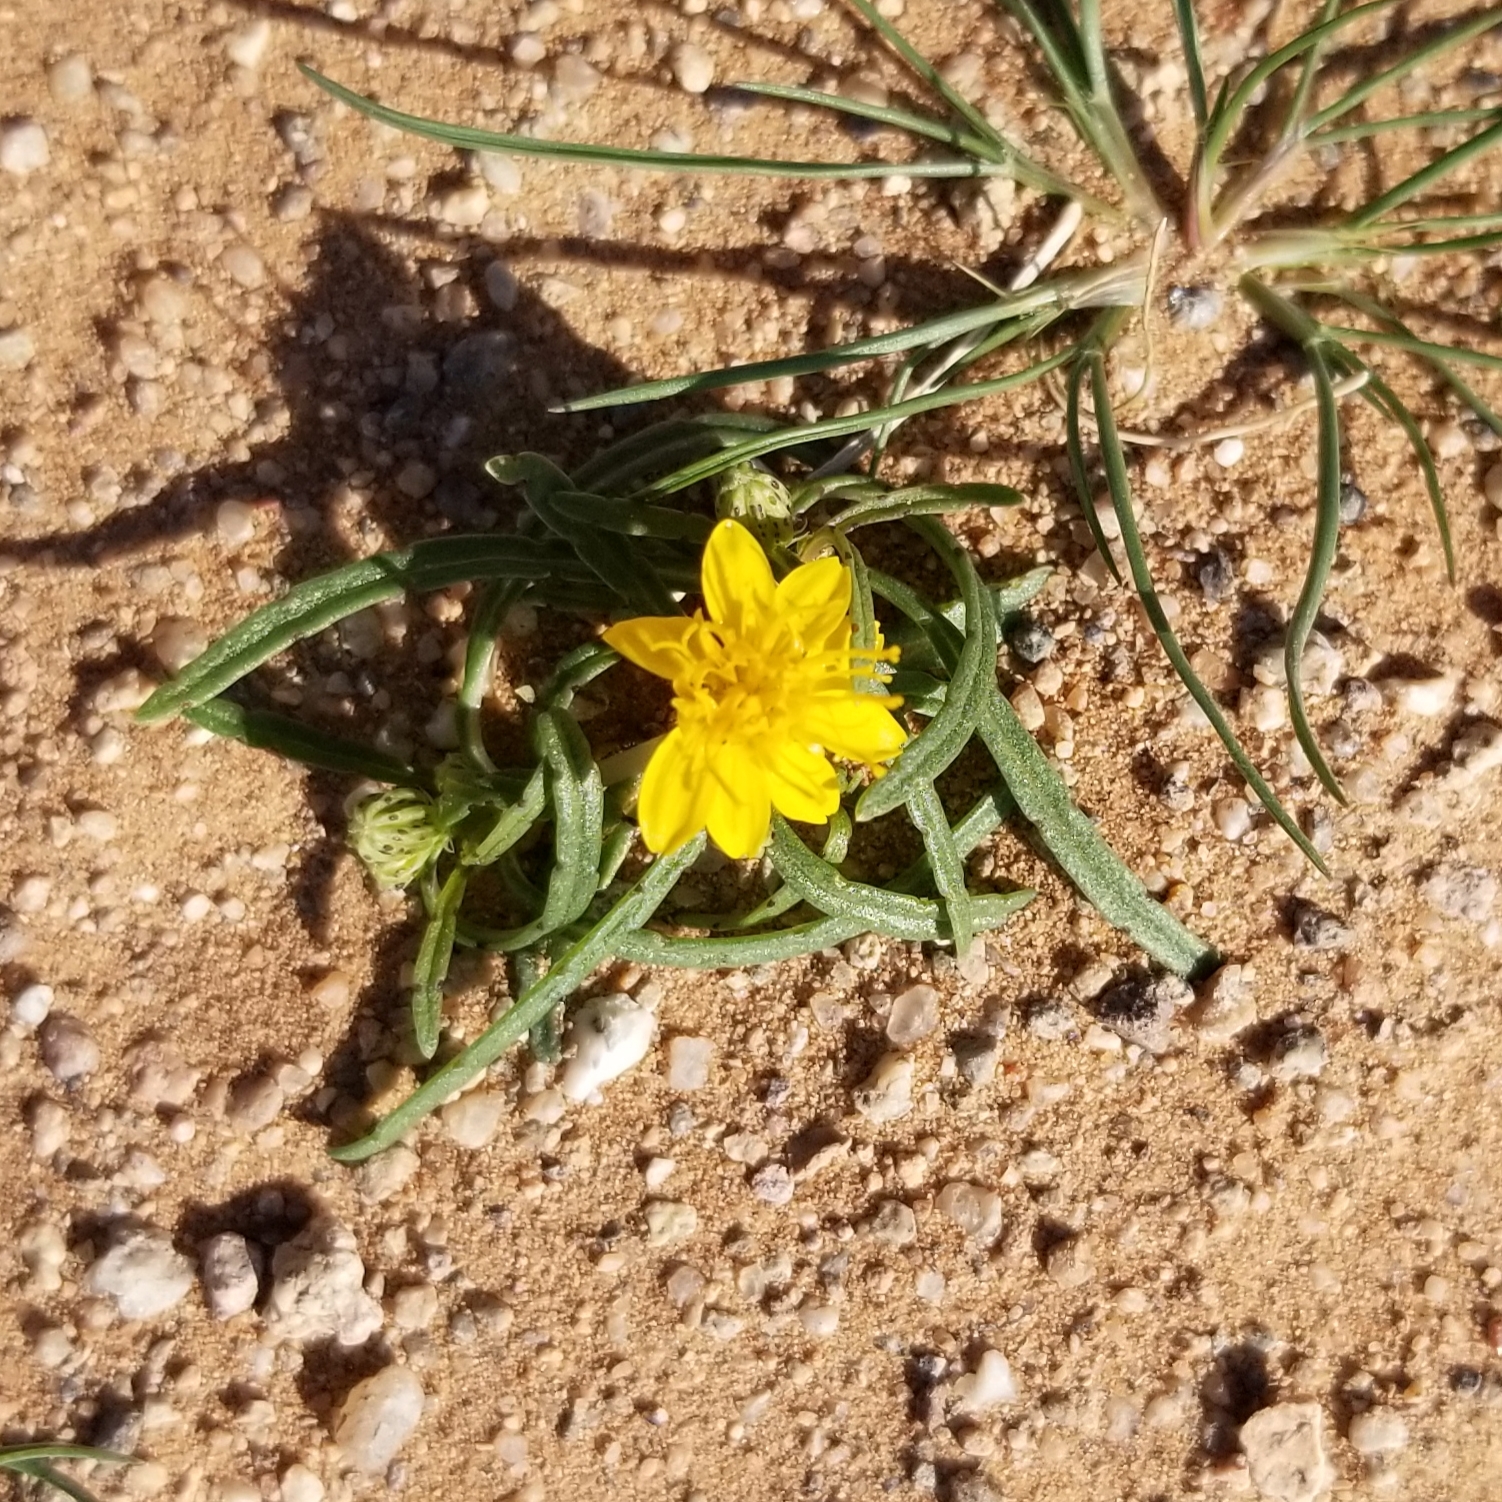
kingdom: Plantae
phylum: Tracheophyta
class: Magnoliopsida
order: Asterales
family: Asteraceae
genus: Pectis
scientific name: Pectis papposa
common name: Many-bristle chinchweed
